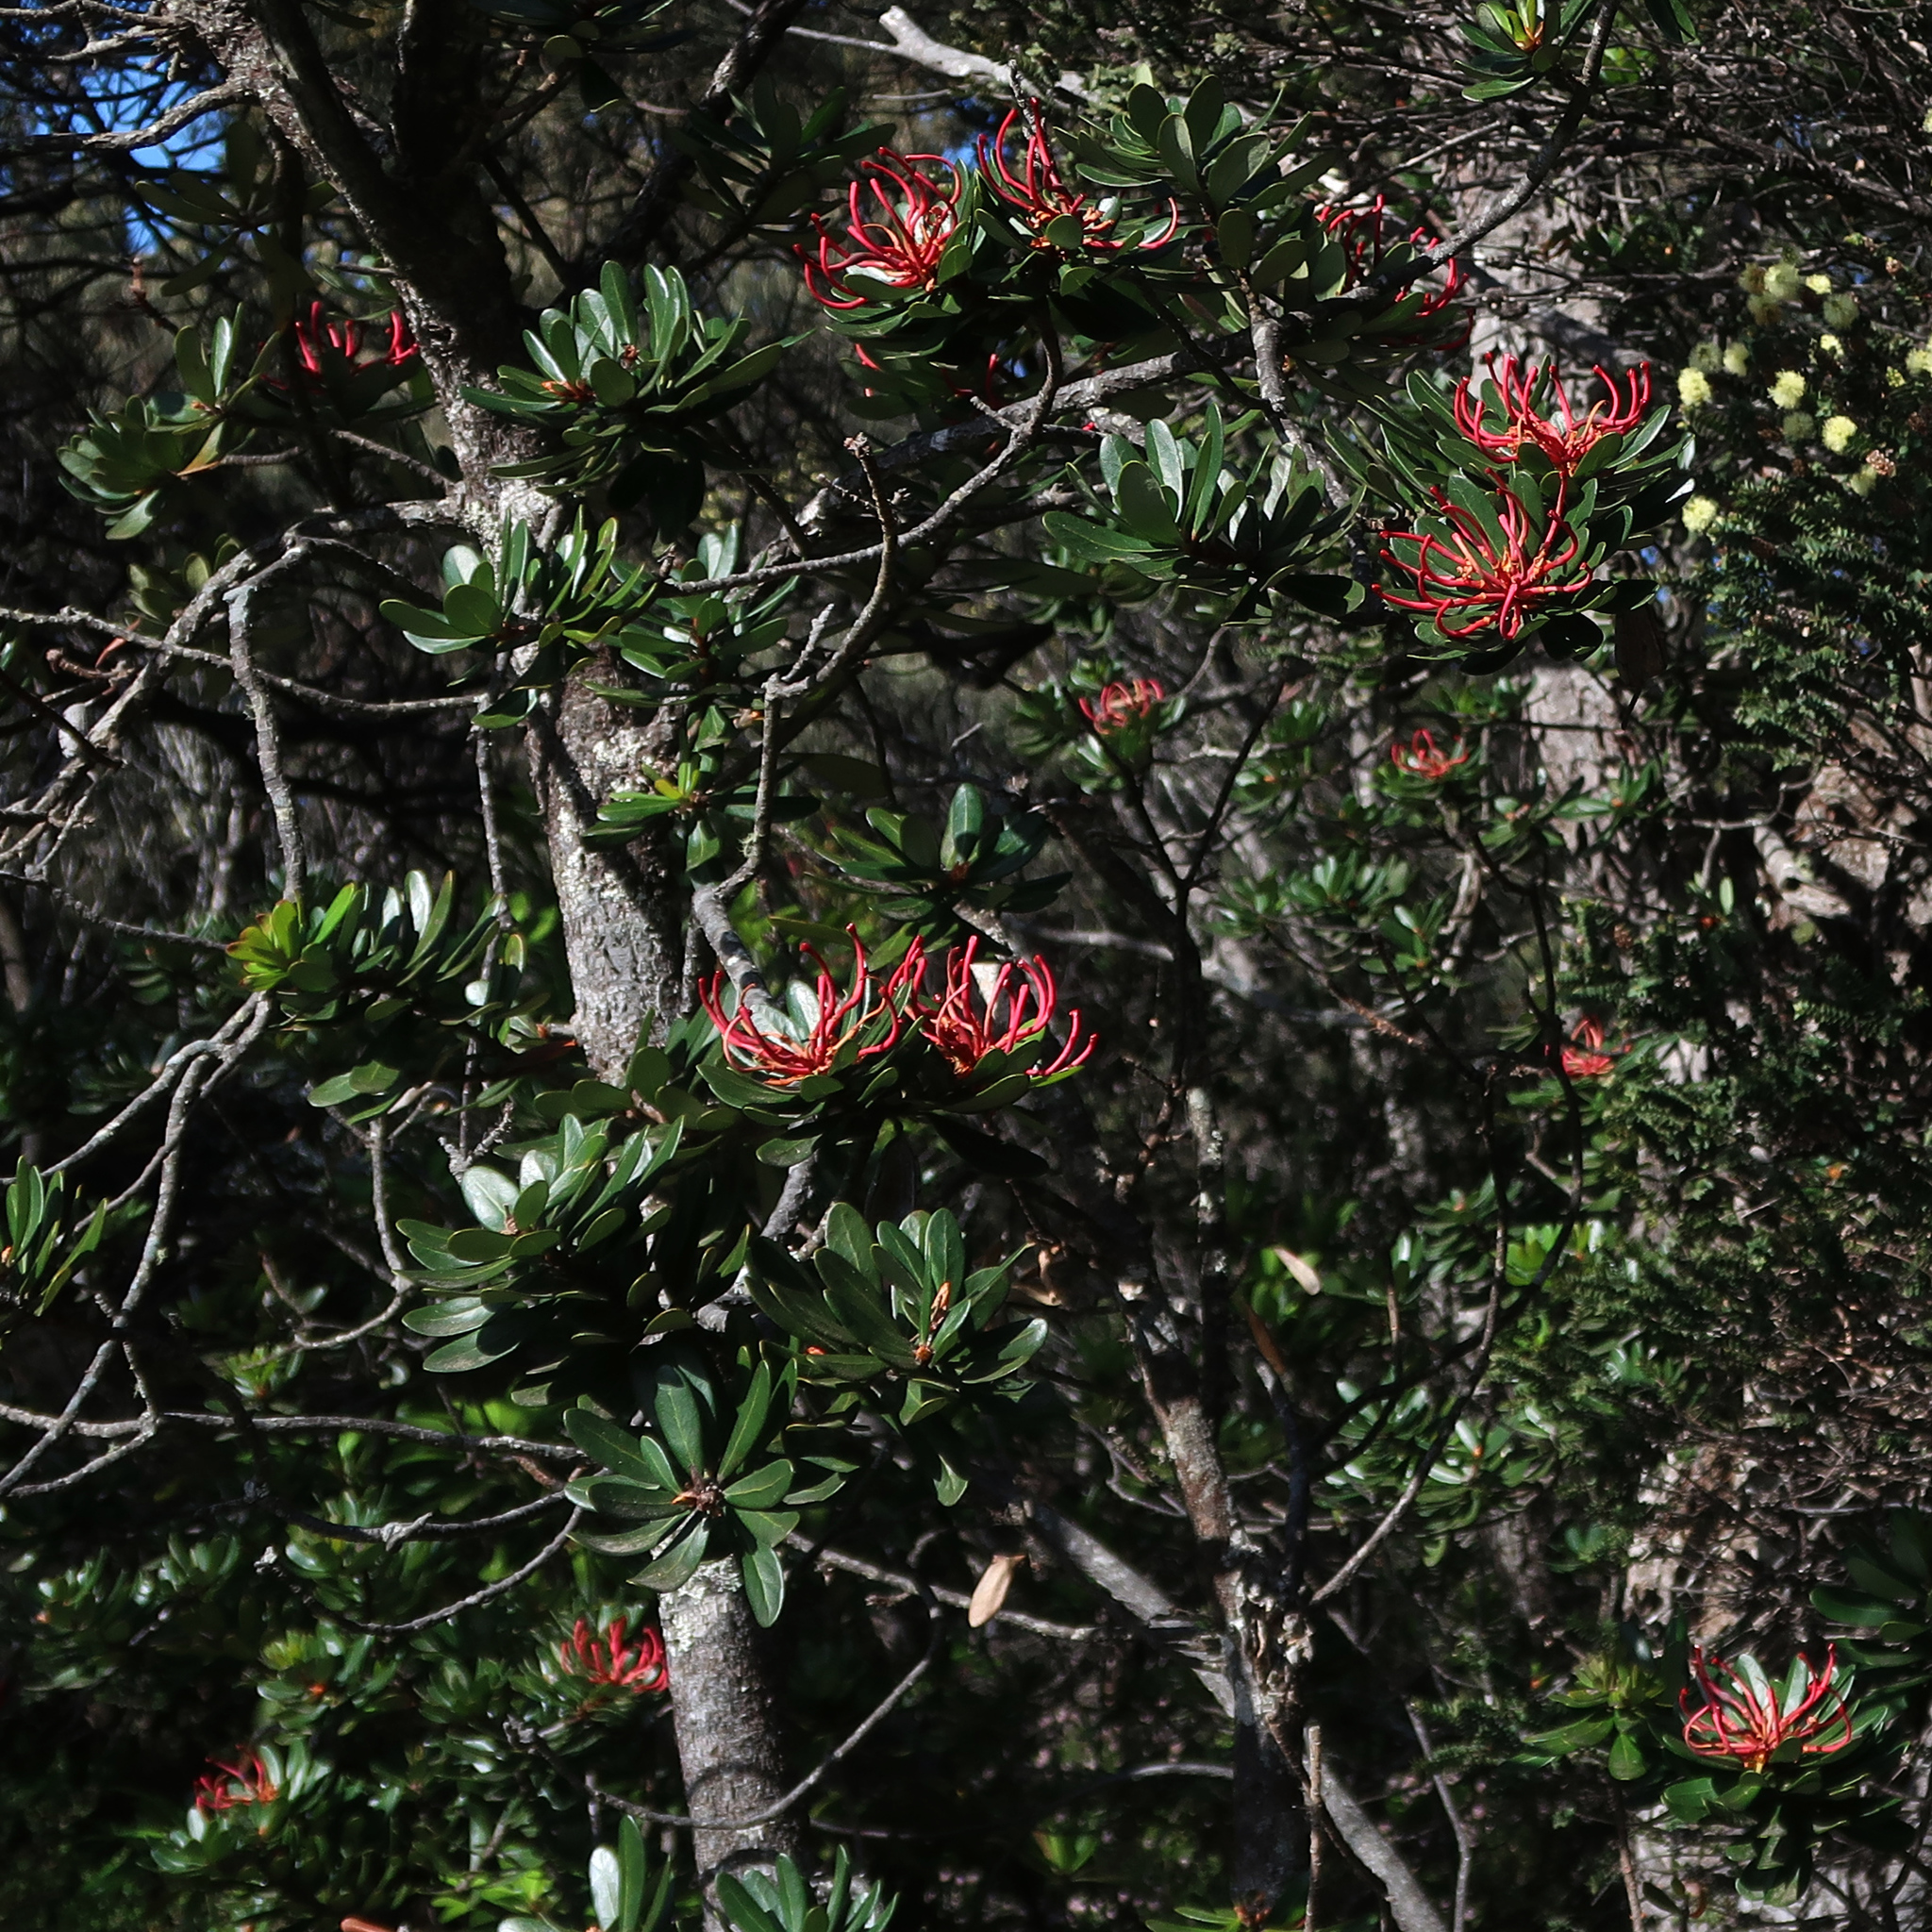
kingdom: Plantae
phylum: Tracheophyta
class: Magnoliopsida
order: Proteales
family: Proteaceae
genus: Telopea
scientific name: Telopea truncata
